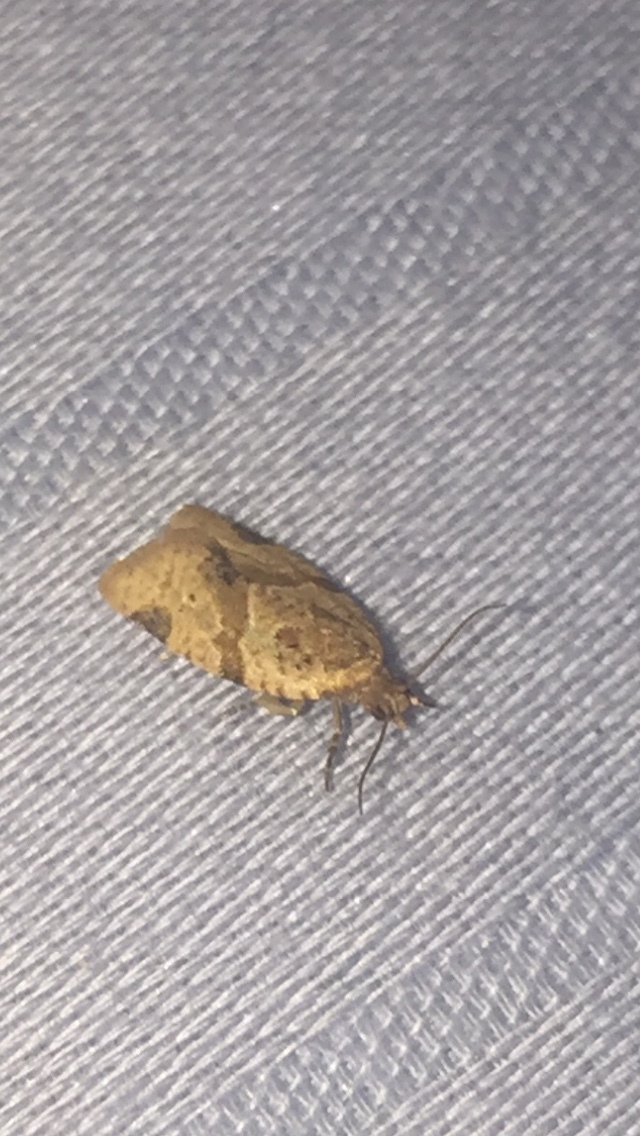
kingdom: Animalia
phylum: Arthropoda
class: Insecta
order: Lepidoptera
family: Tortricidae
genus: Clepsis
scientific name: Clepsis peritana
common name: Garden tortrix
